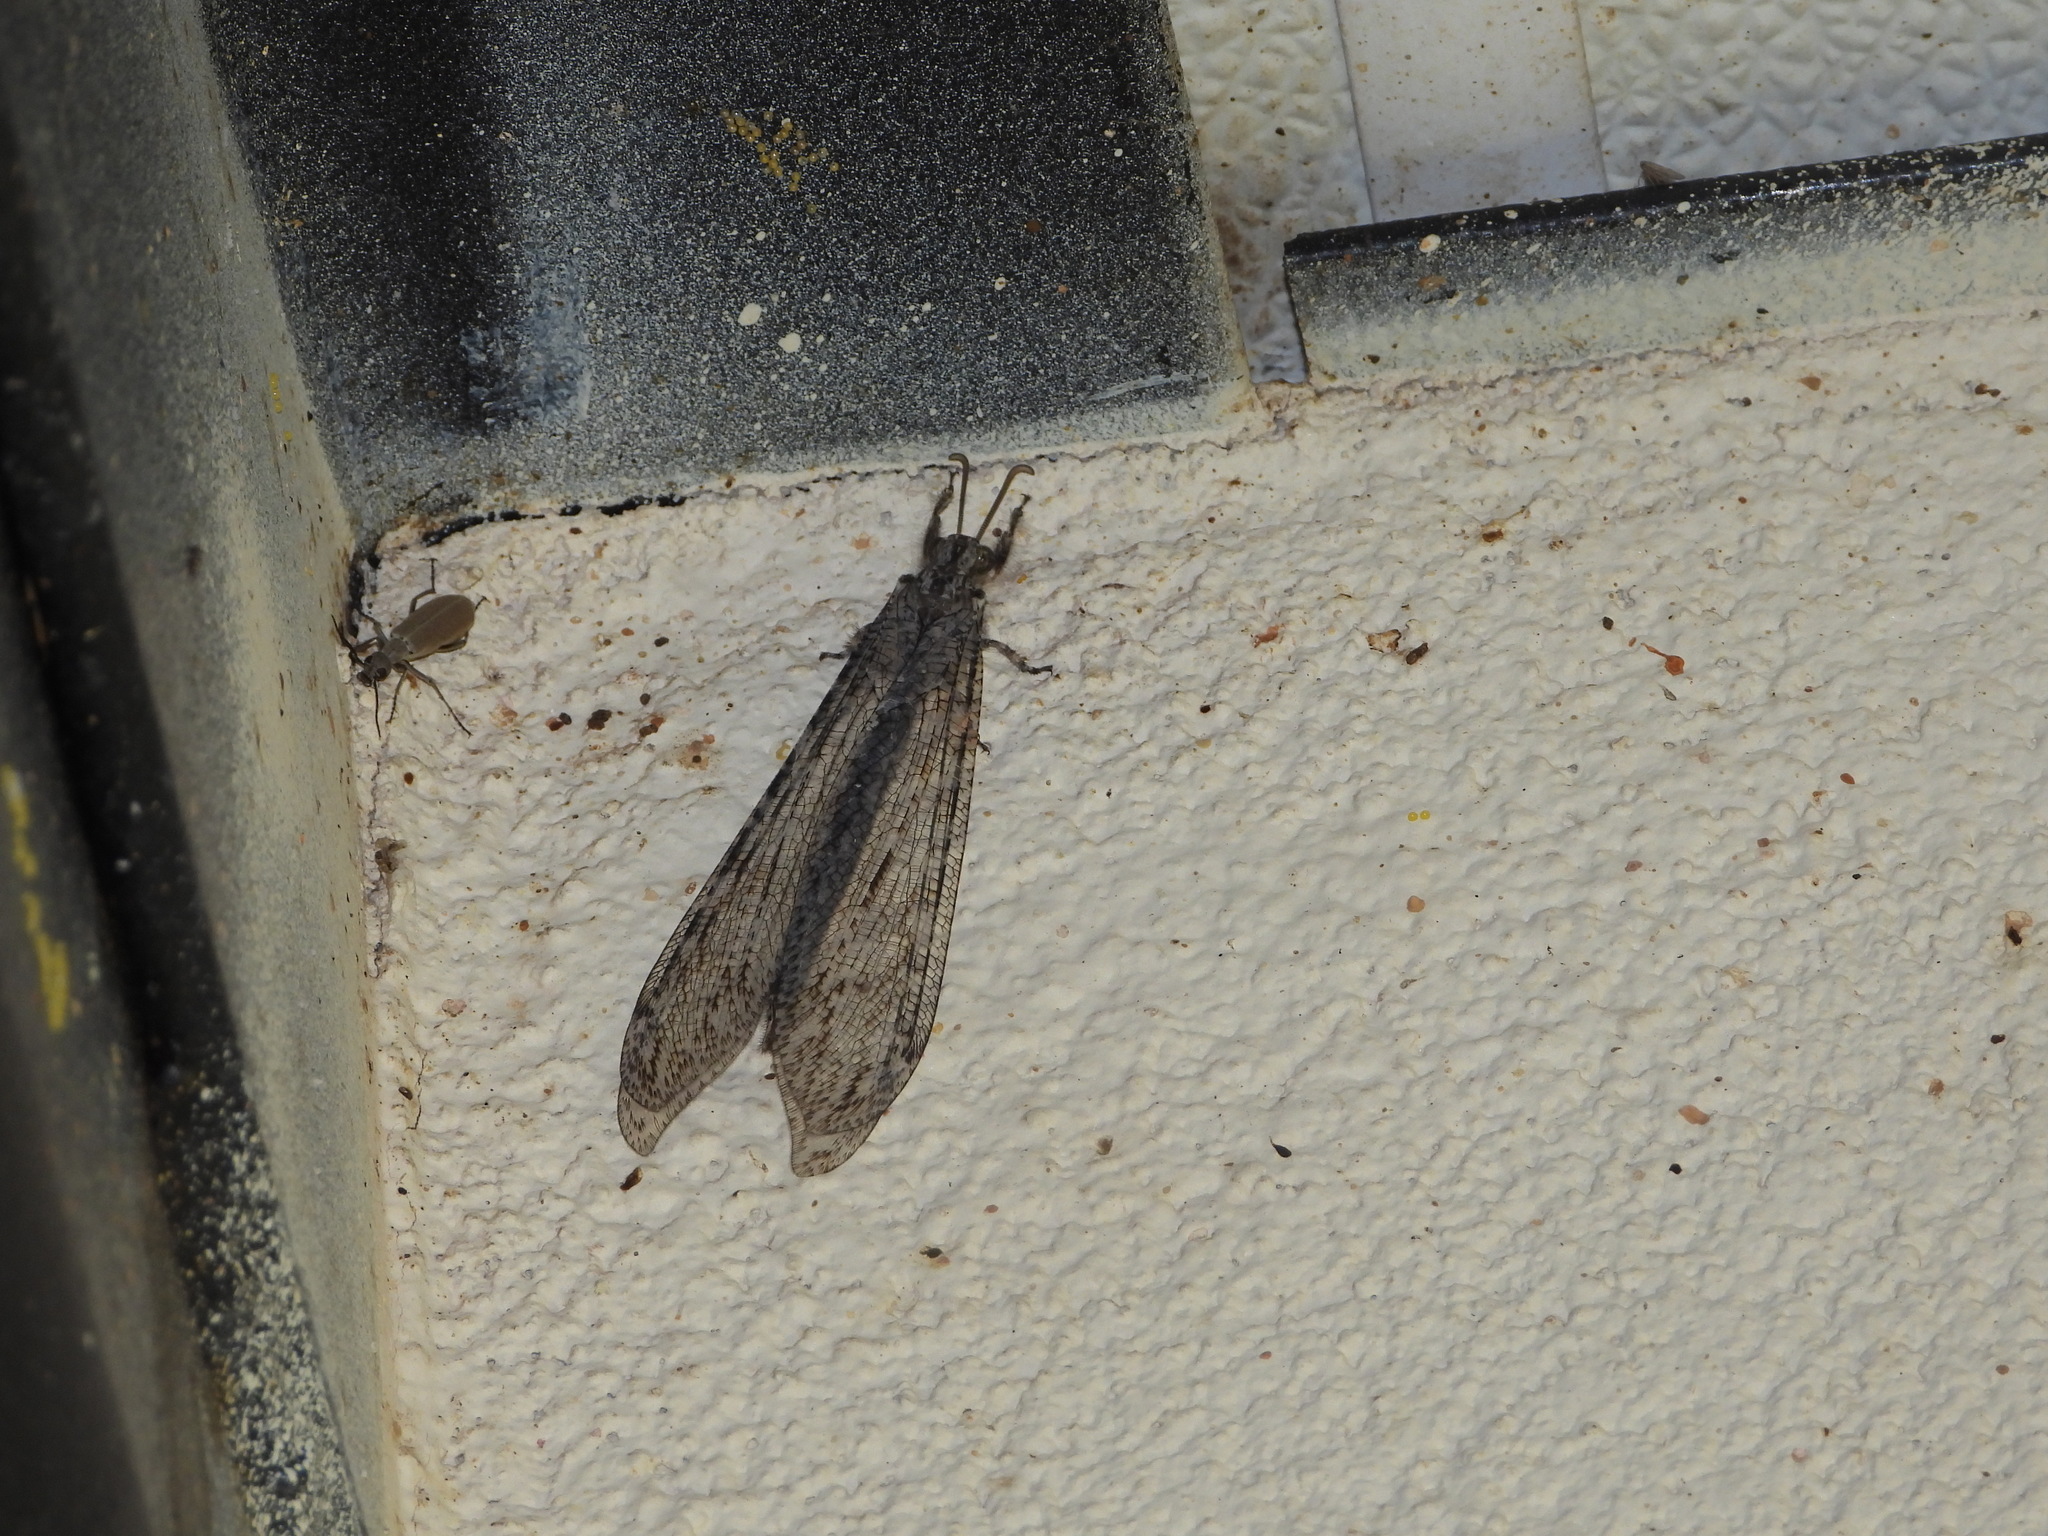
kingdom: Animalia
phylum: Arthropoda
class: Insecta
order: Neuroptera
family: Myrmeleontidae
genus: Vella
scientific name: Vella fallax
